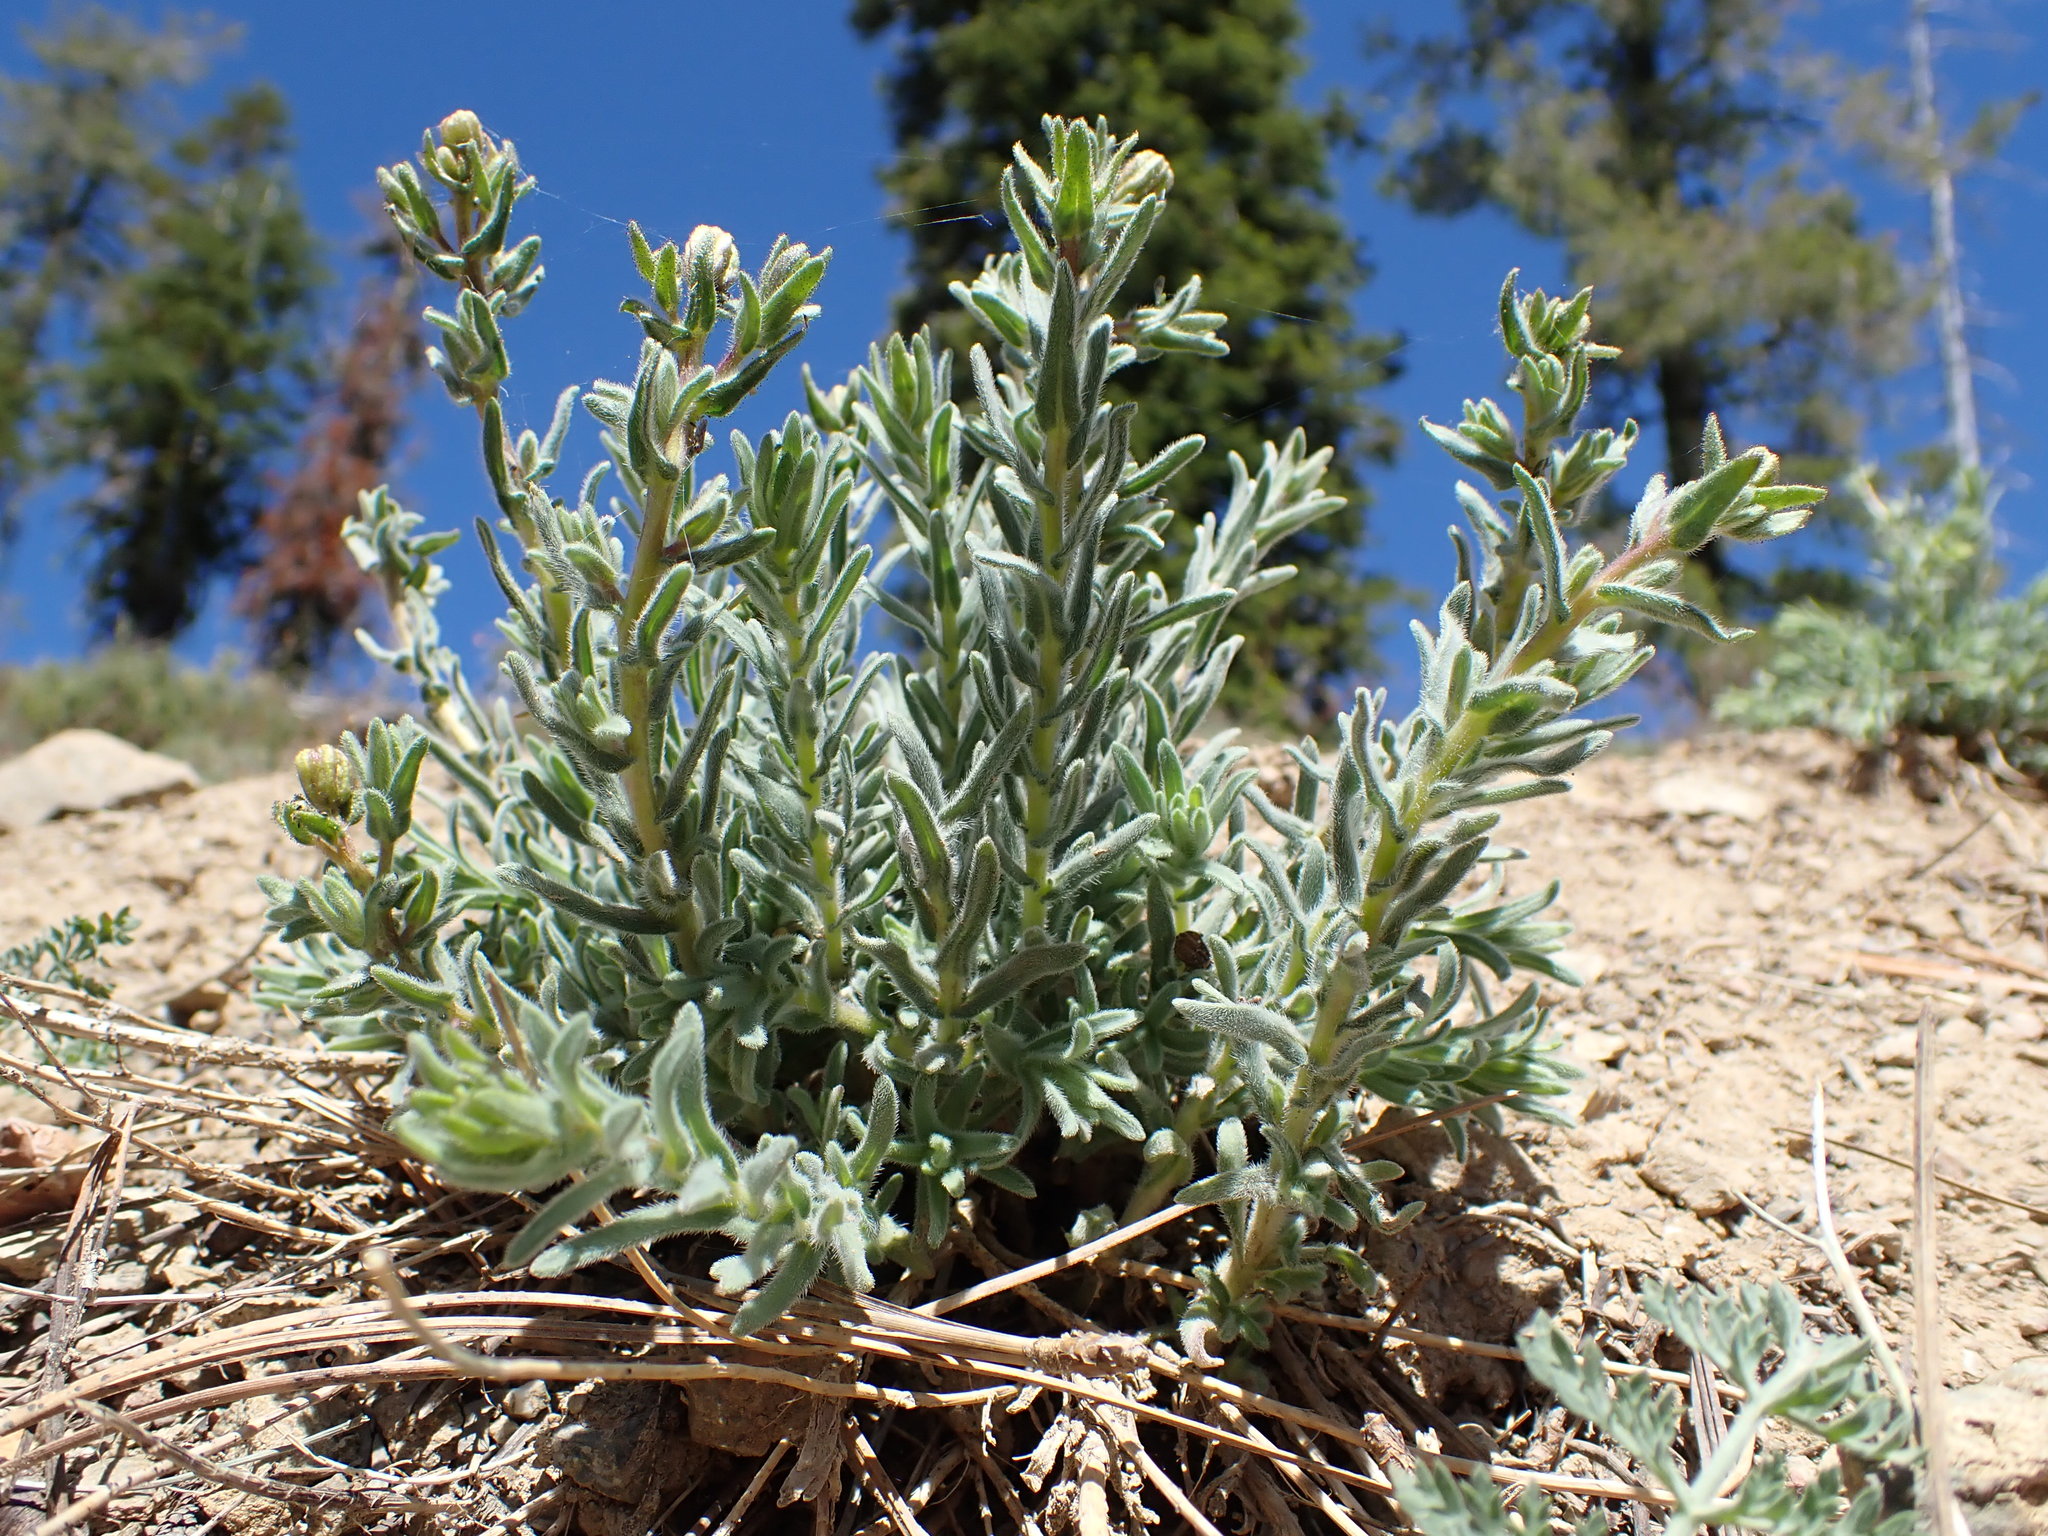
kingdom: Plantae
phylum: Tracheophyta
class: Magnoliopsida
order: Asterales
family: Asteraceae
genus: Anisocarpus
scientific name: Anisocarpus scabridus
